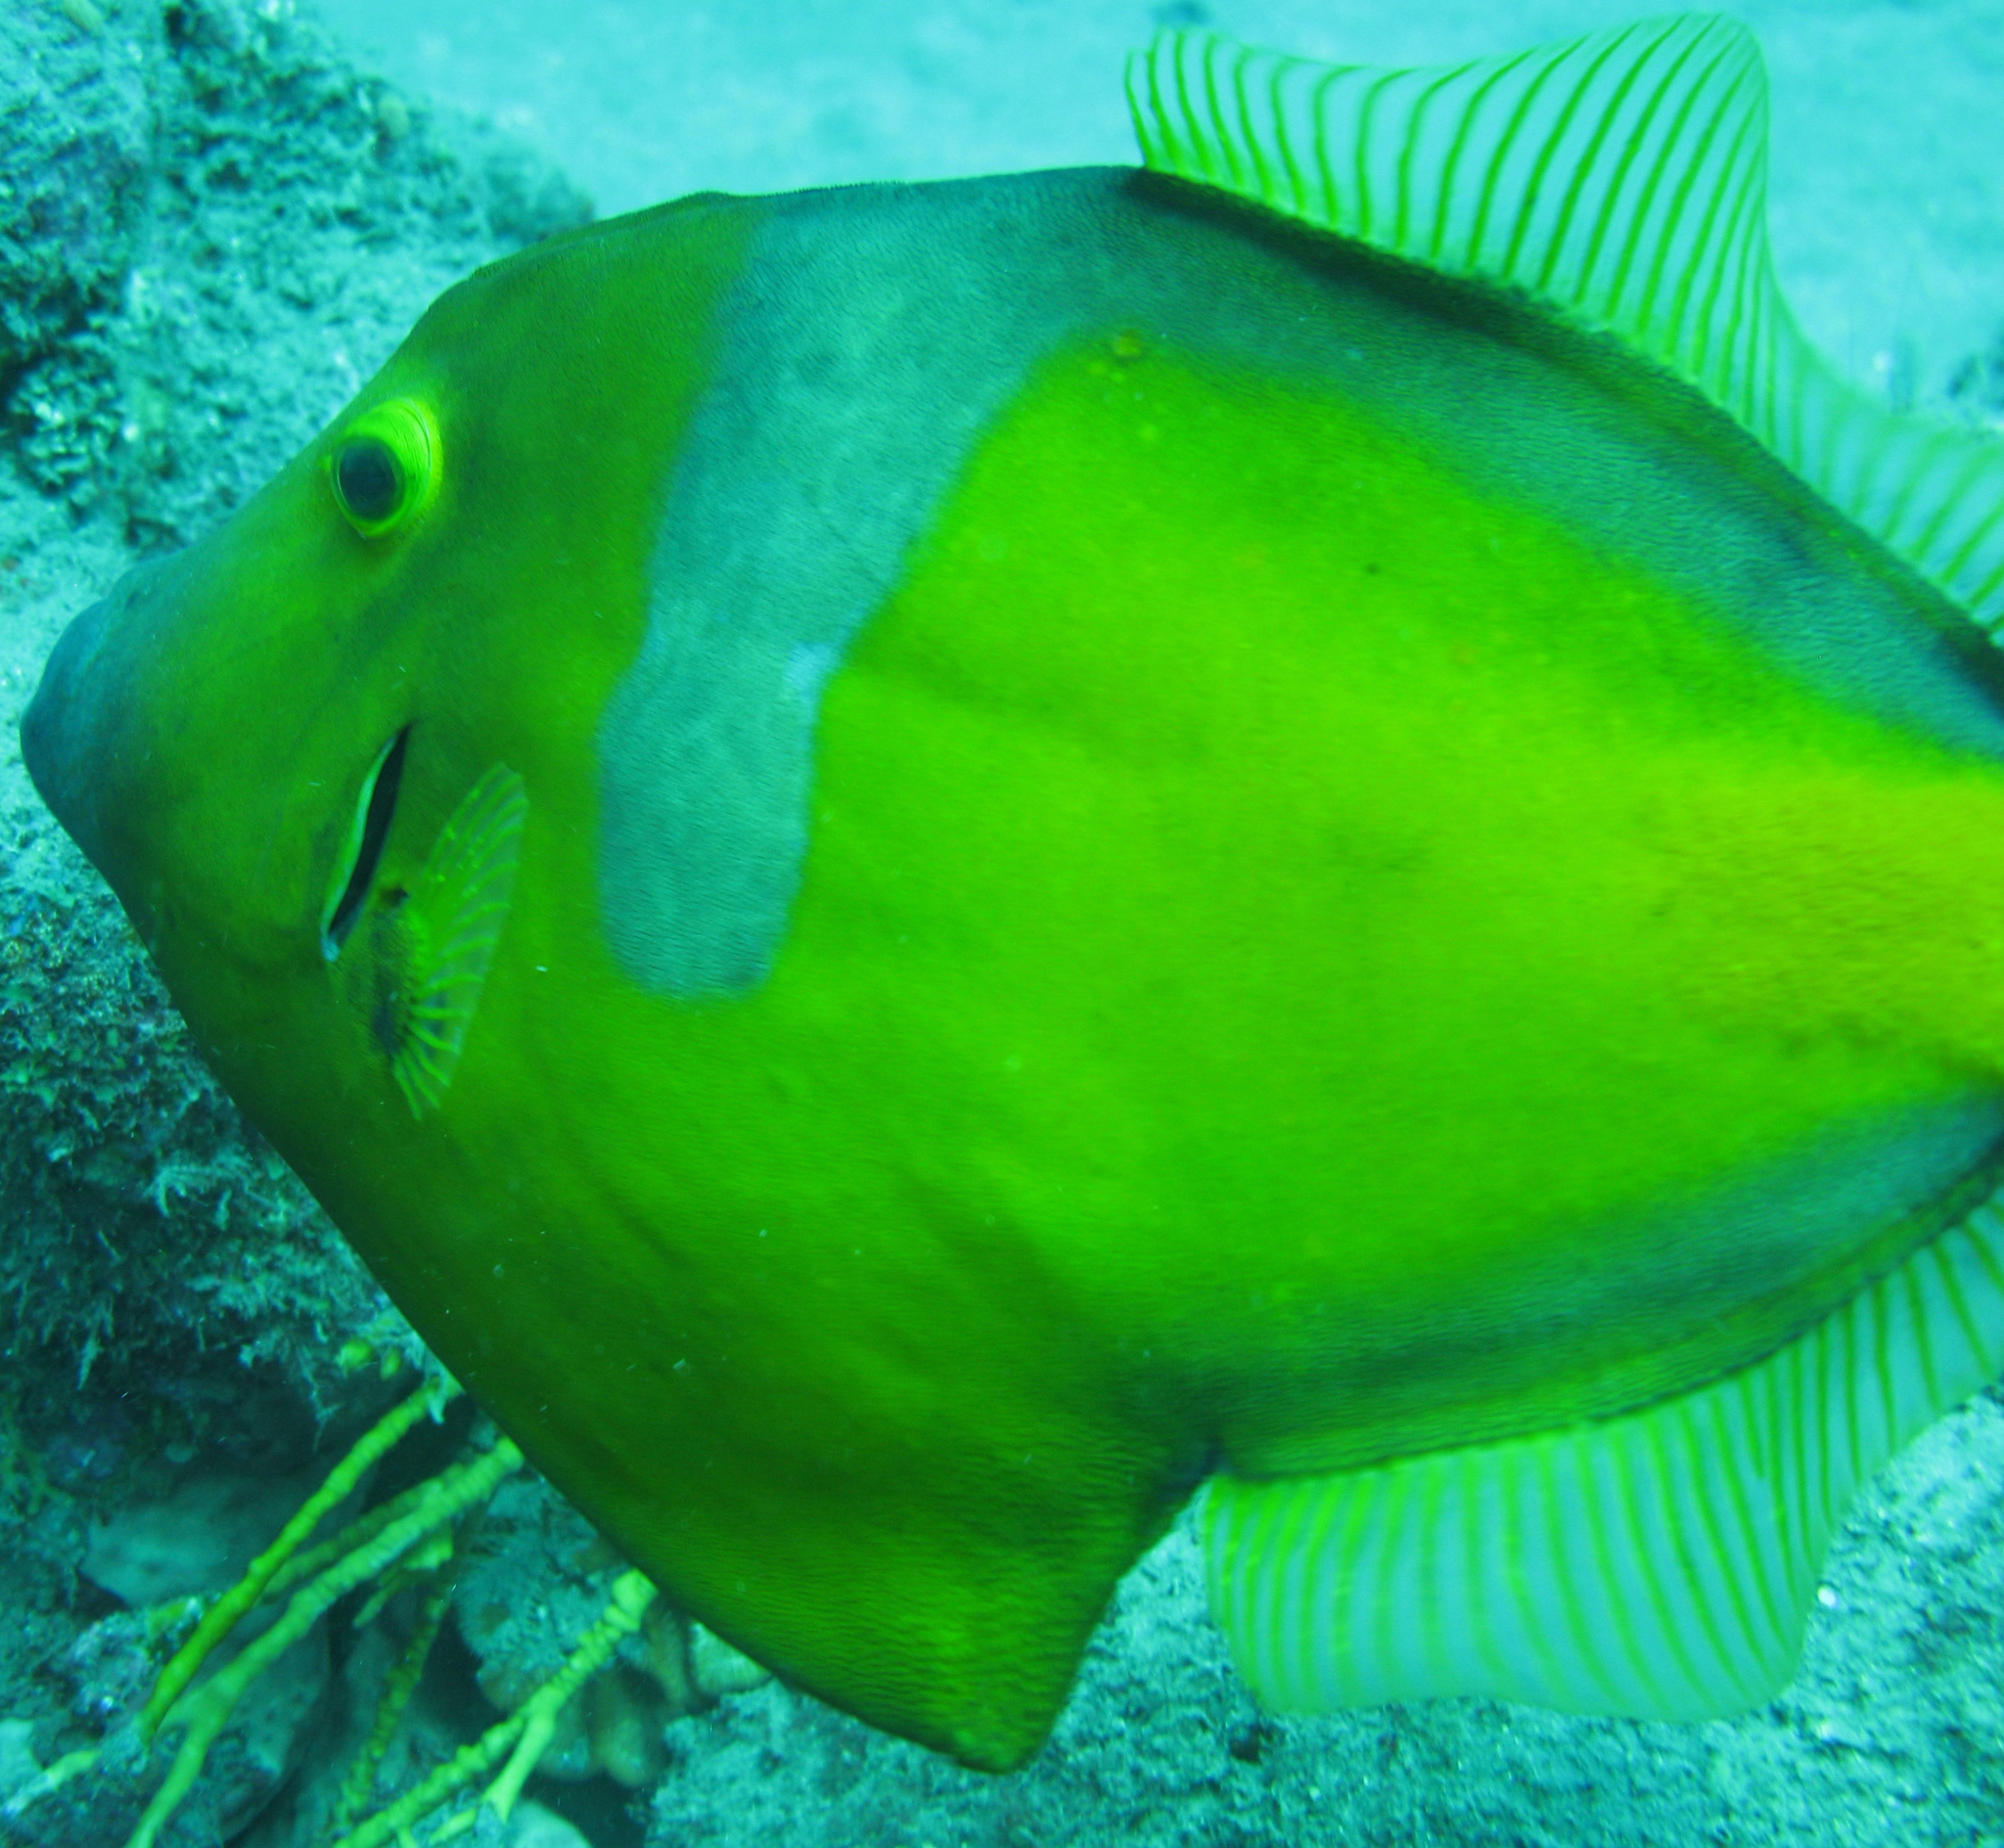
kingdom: Animalia
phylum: Chordata
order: Tetraodontiformes
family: Monacanthidae
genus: Cantherhines
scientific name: Cantherhines macrocerus
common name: Whitespotted filefish
